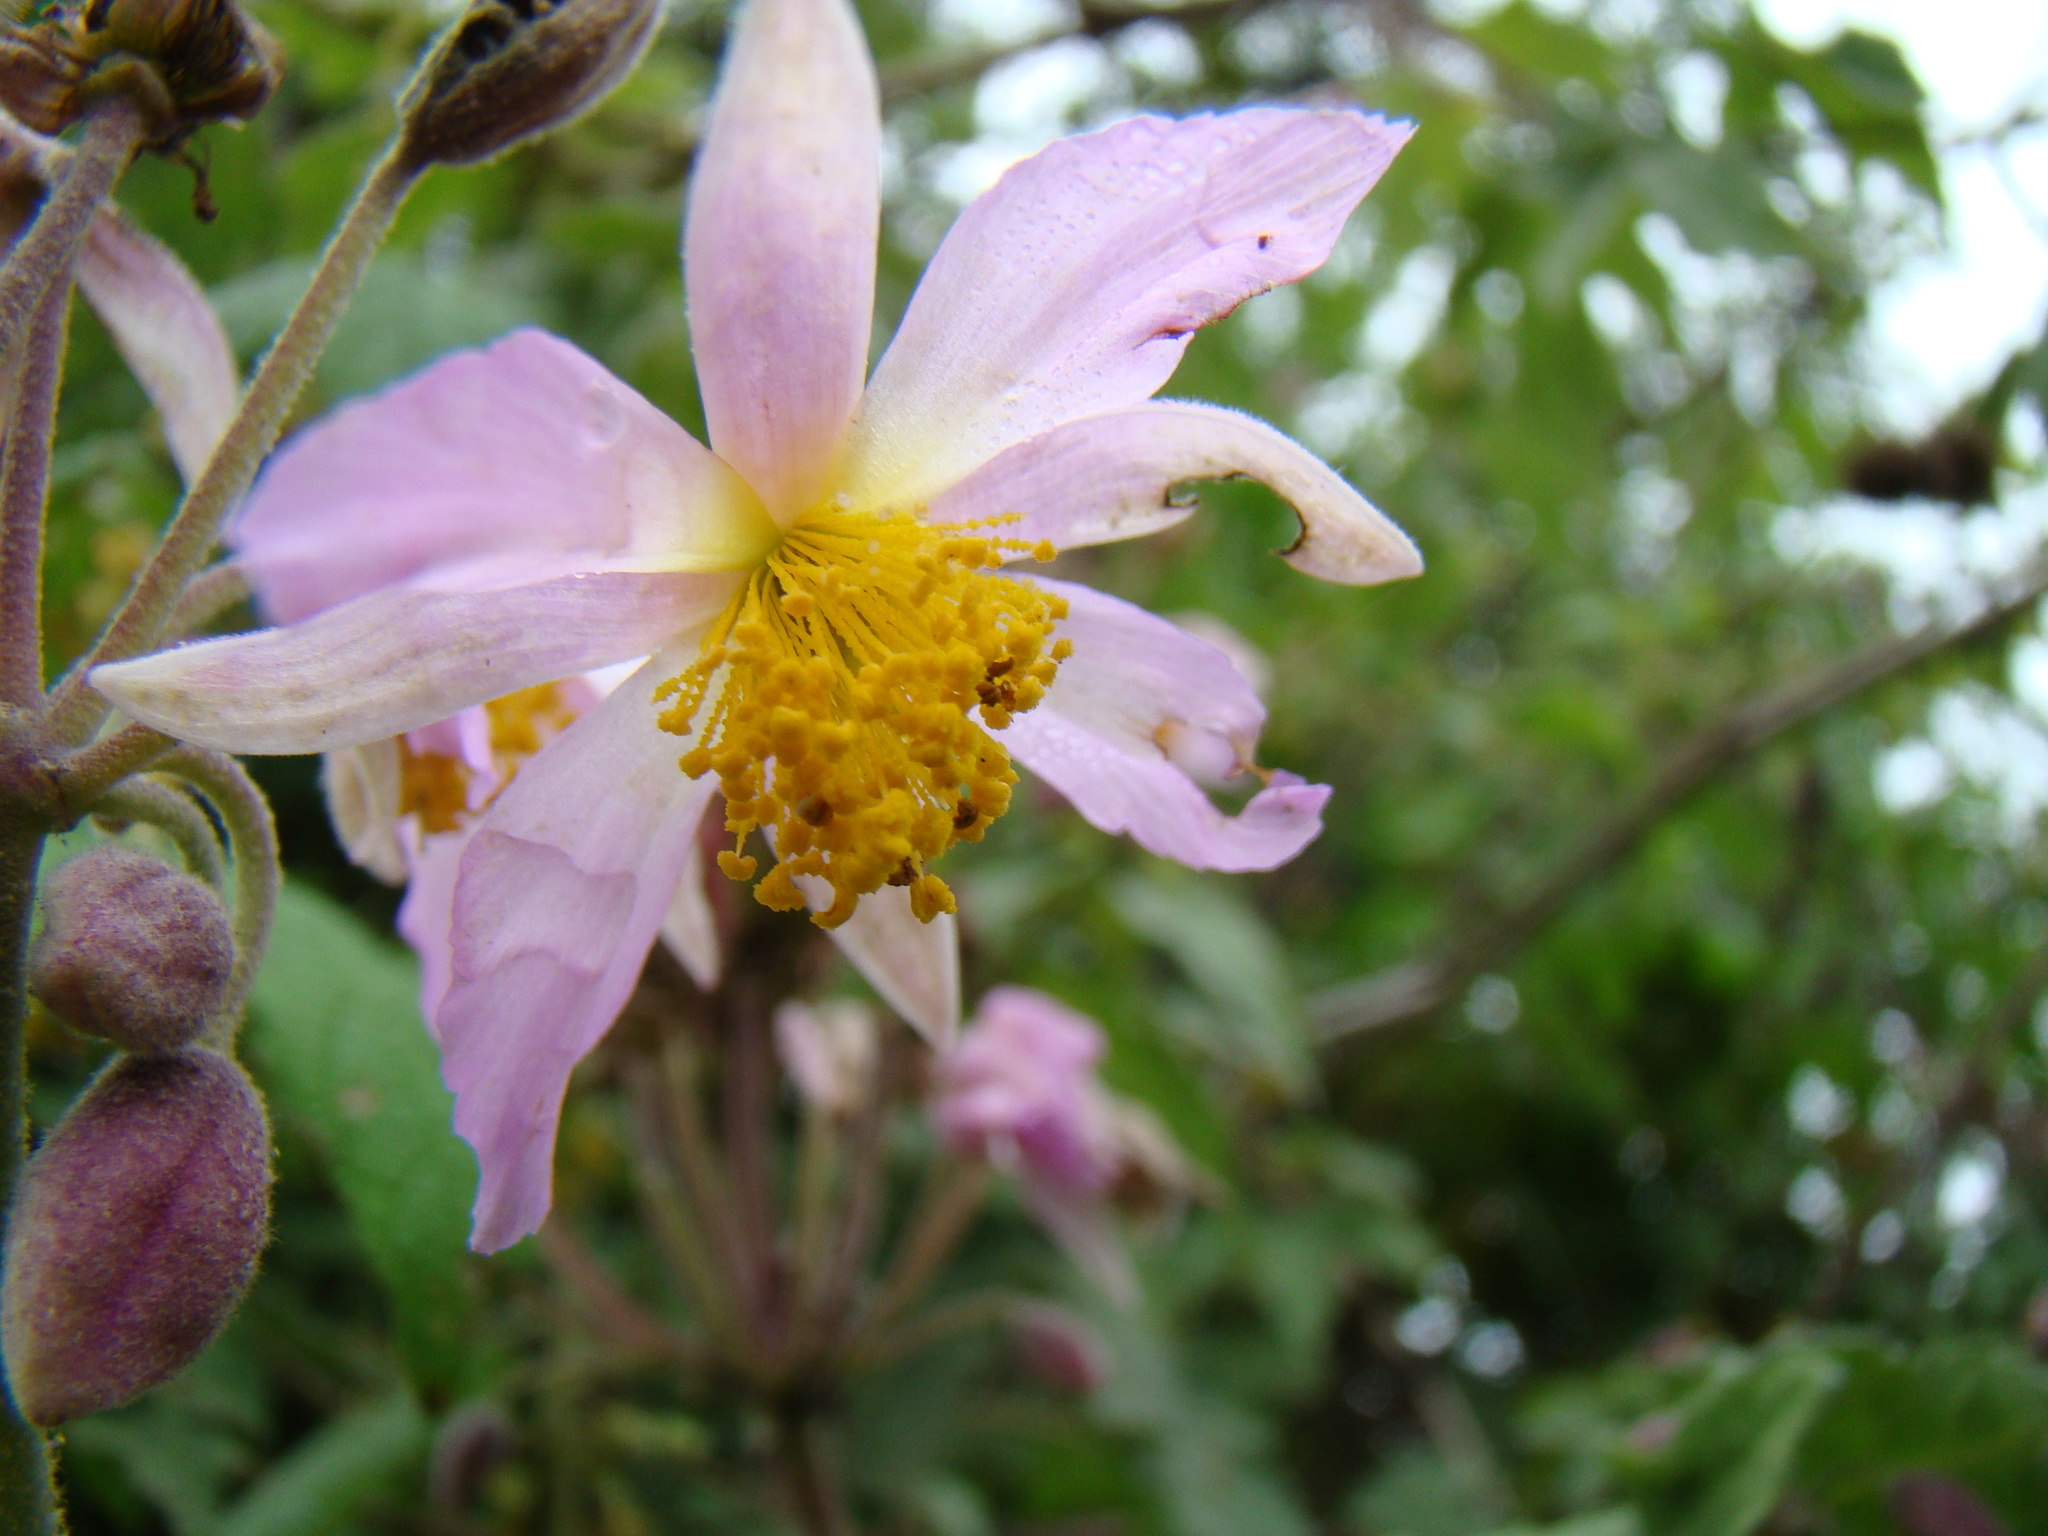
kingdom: Plantae
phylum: Tracheophyta
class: Magnoliopsida
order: Malvales
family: Malvaceae
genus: Sparrmannia
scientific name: Sparrmannia ricinocarpa
